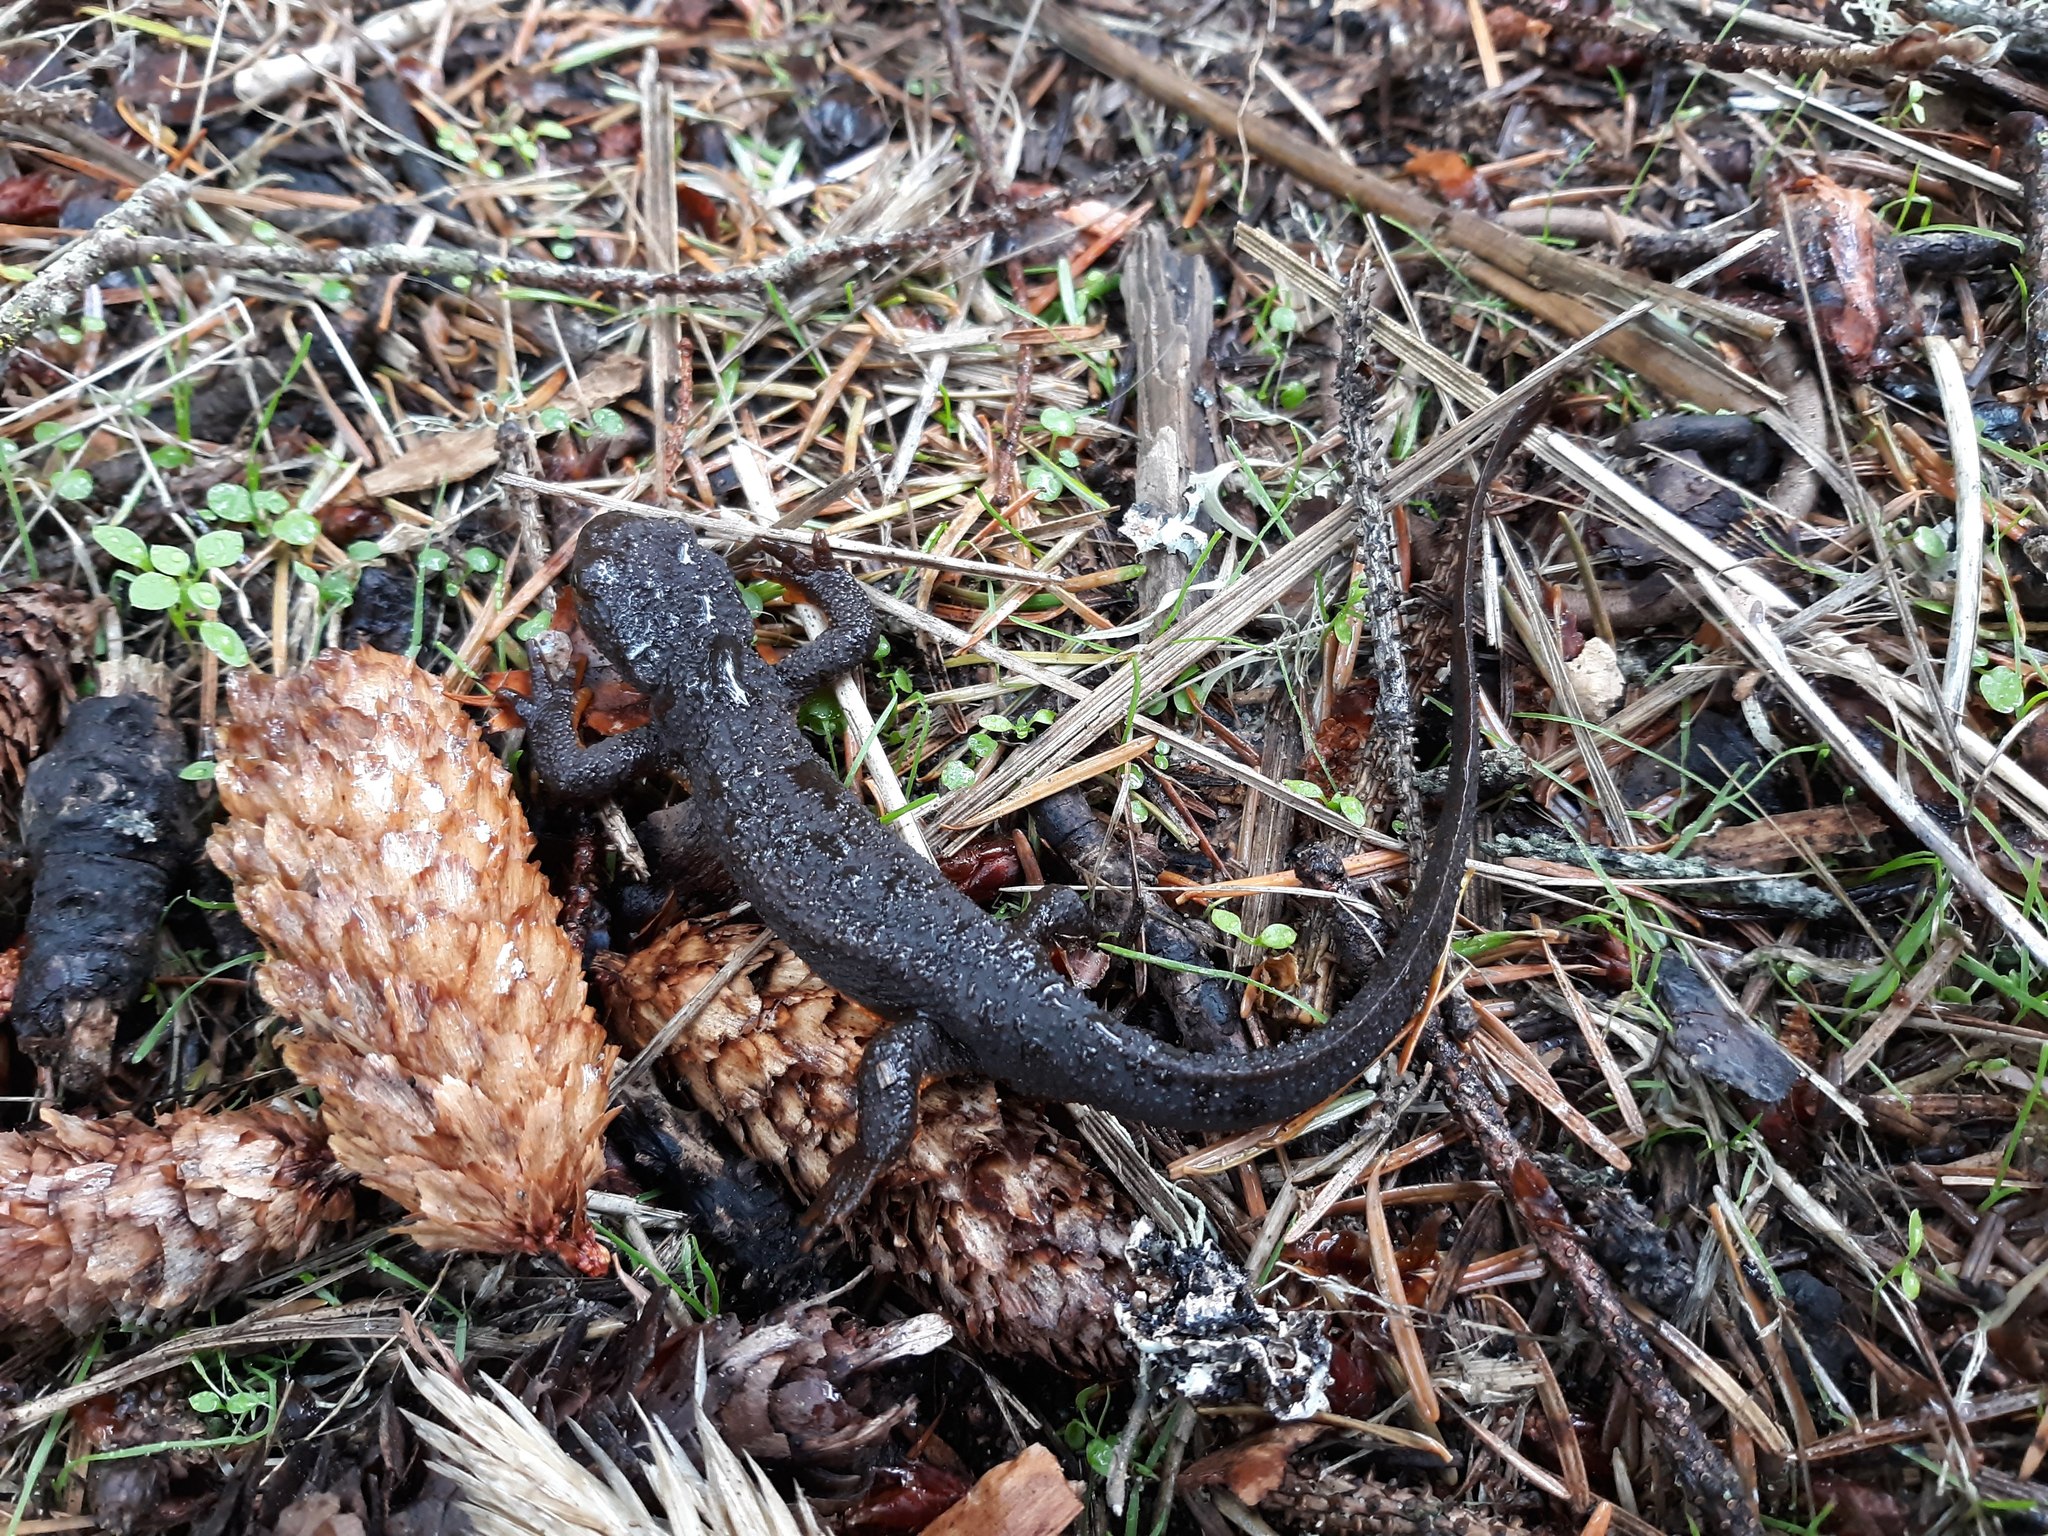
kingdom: Animalia
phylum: Chordata
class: Amphibia
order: Caudata
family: Salamandridae
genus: Taricha
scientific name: Taricha granulosa
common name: Roughskin newt
